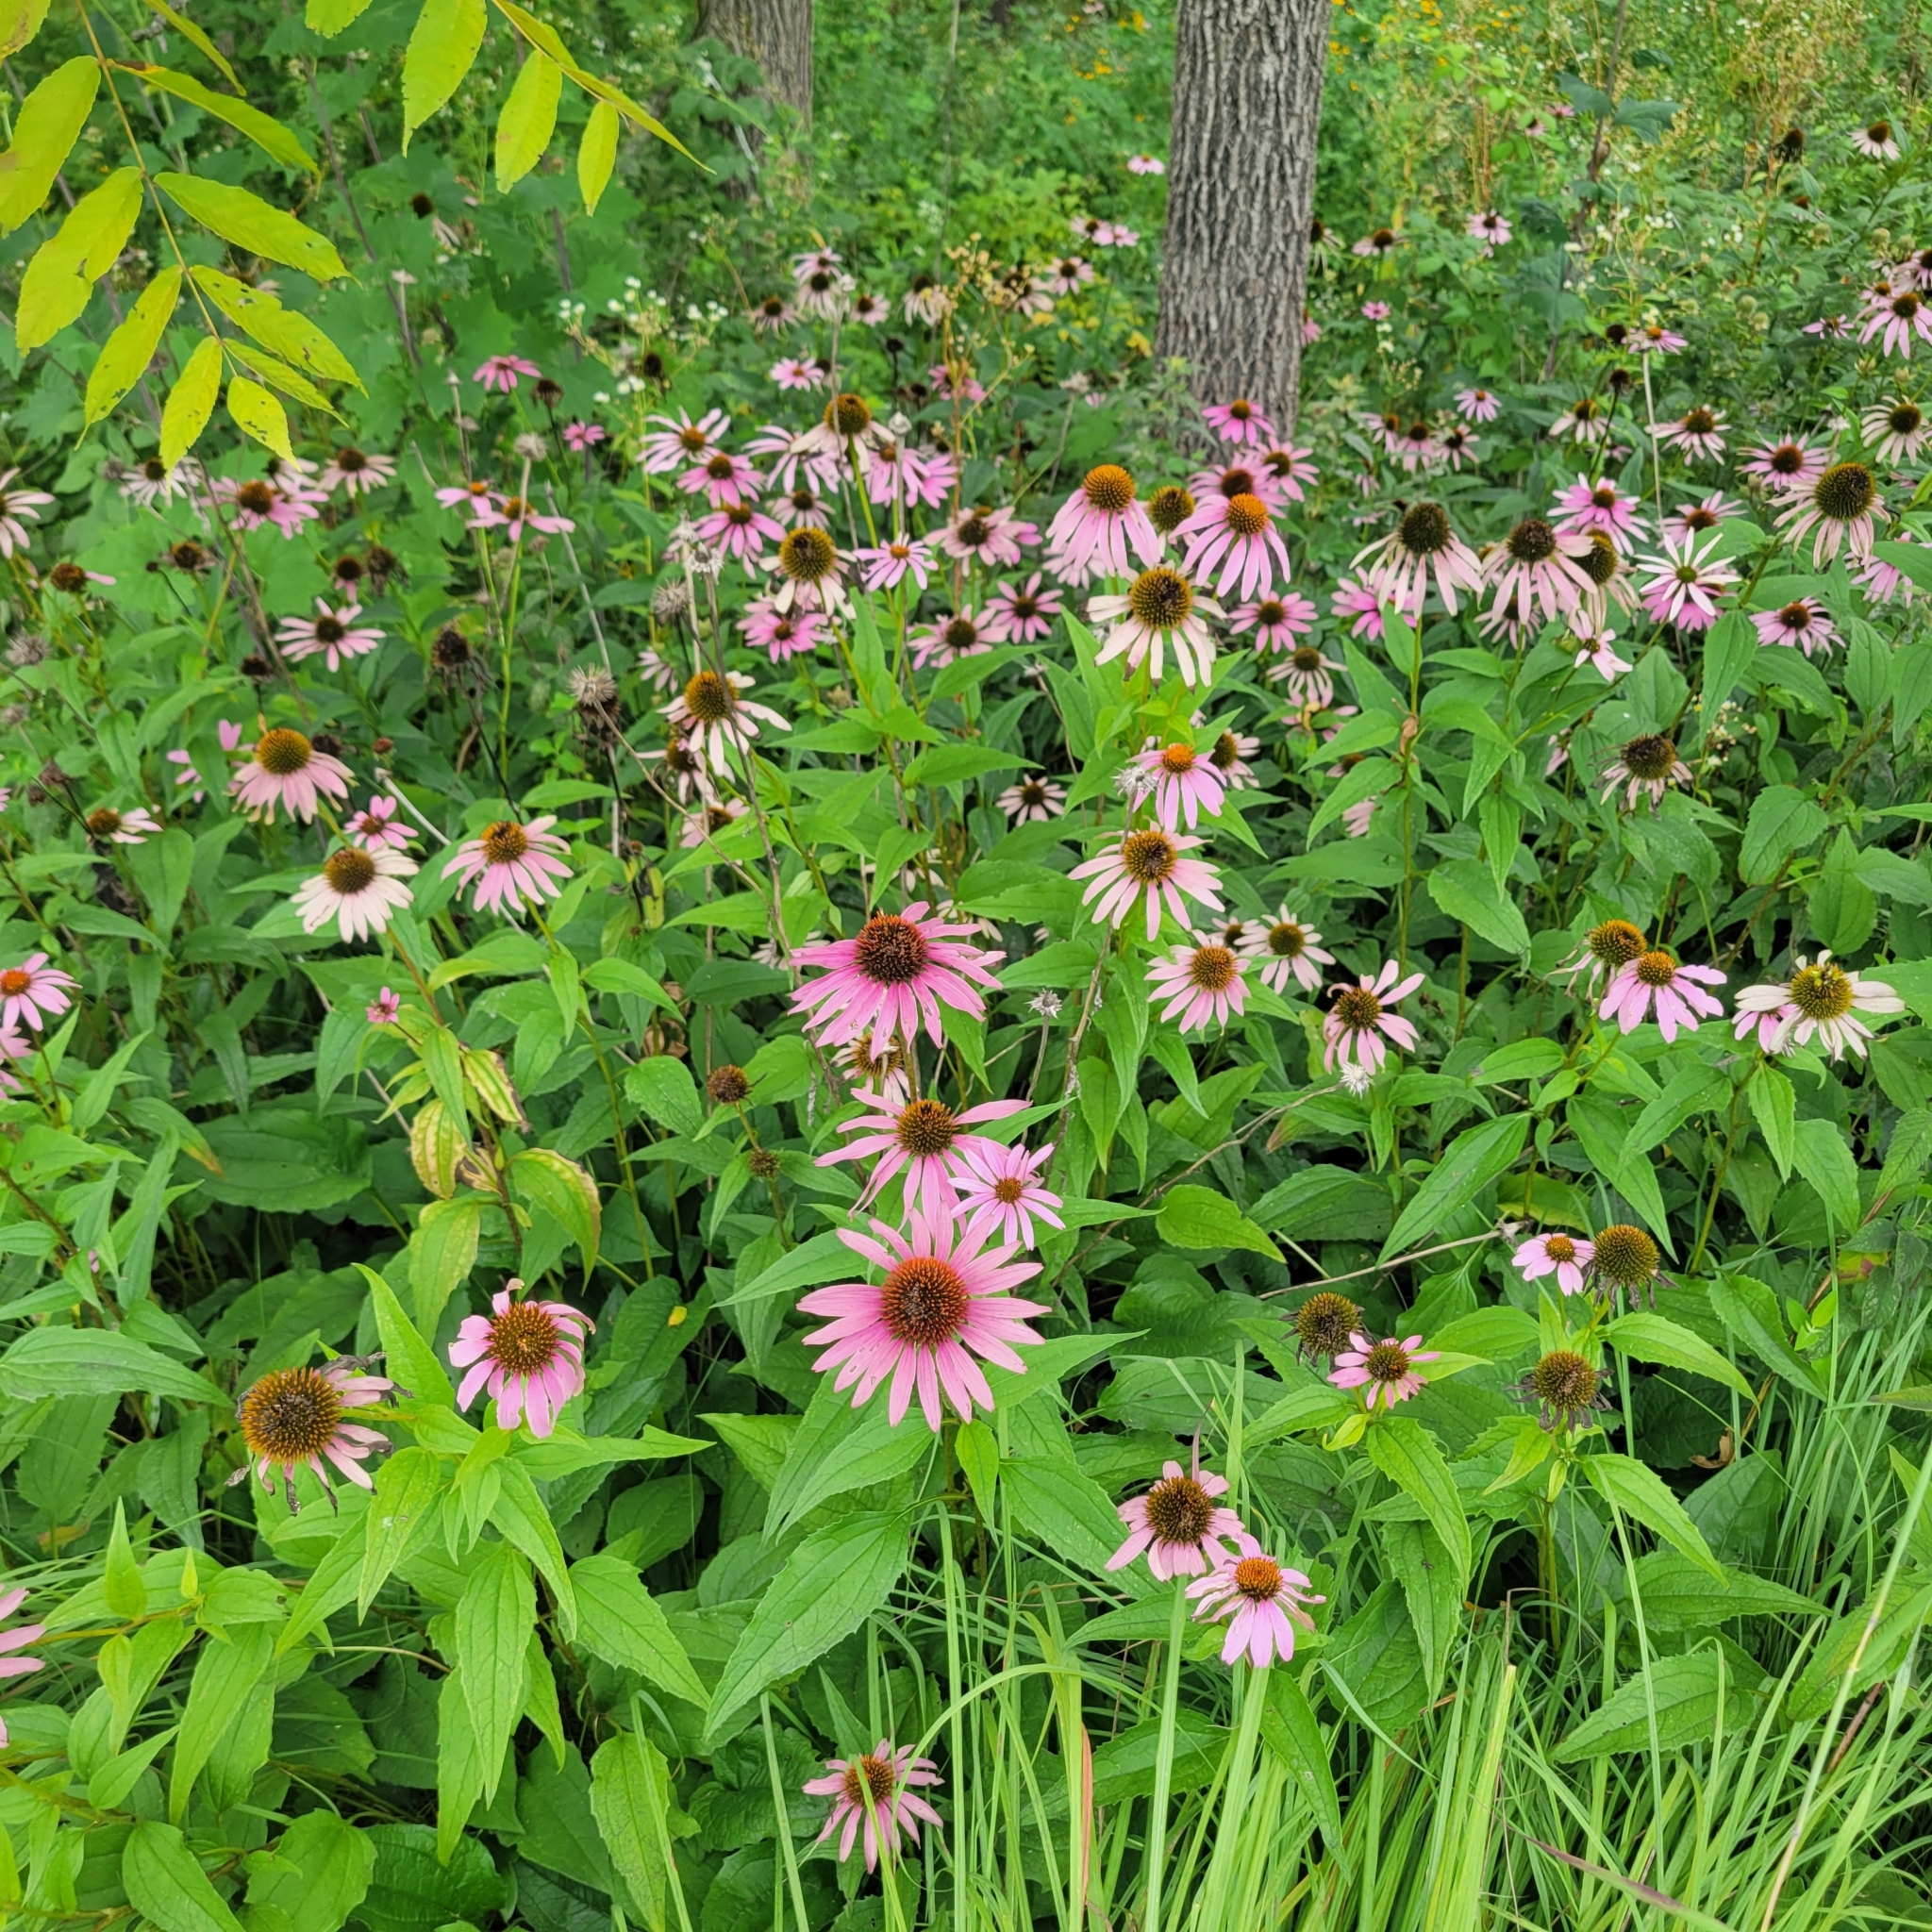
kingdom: Plantae
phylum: Tracheophyta
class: Magnoliopsida
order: Asterales
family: Asteraceae
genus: Echinacea
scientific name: Echinacea purpurea
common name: Broad-leaved purple coneflower
